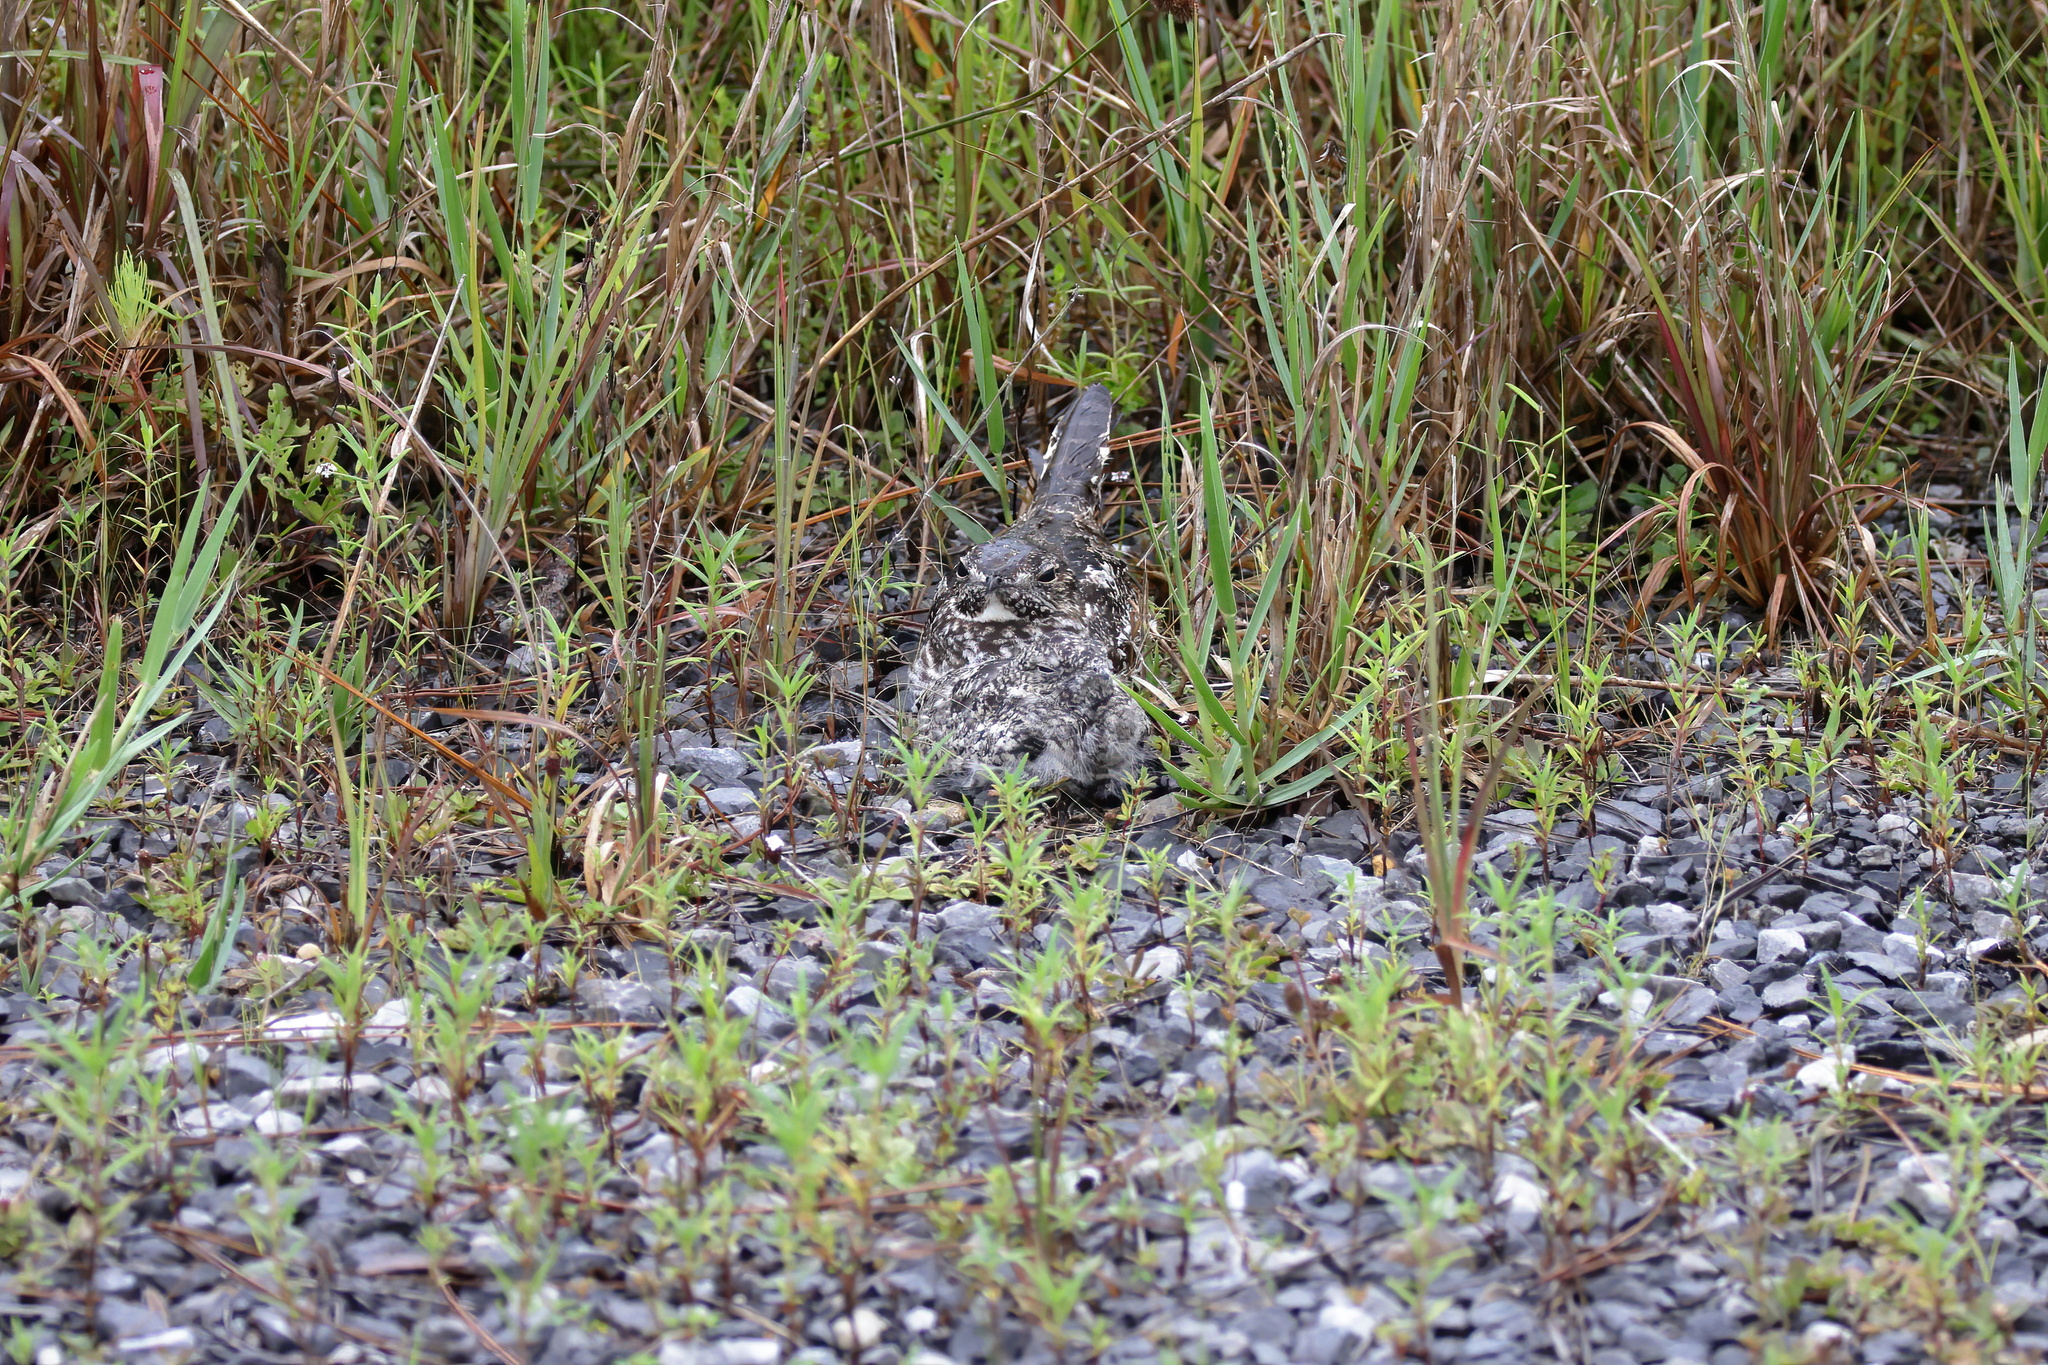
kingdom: Animalia
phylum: Chordata
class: Aves
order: Caprimulgiformes
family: Caprimulgidae
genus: Chordeiles
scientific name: Chordeiles minor
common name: Common nighthawk
